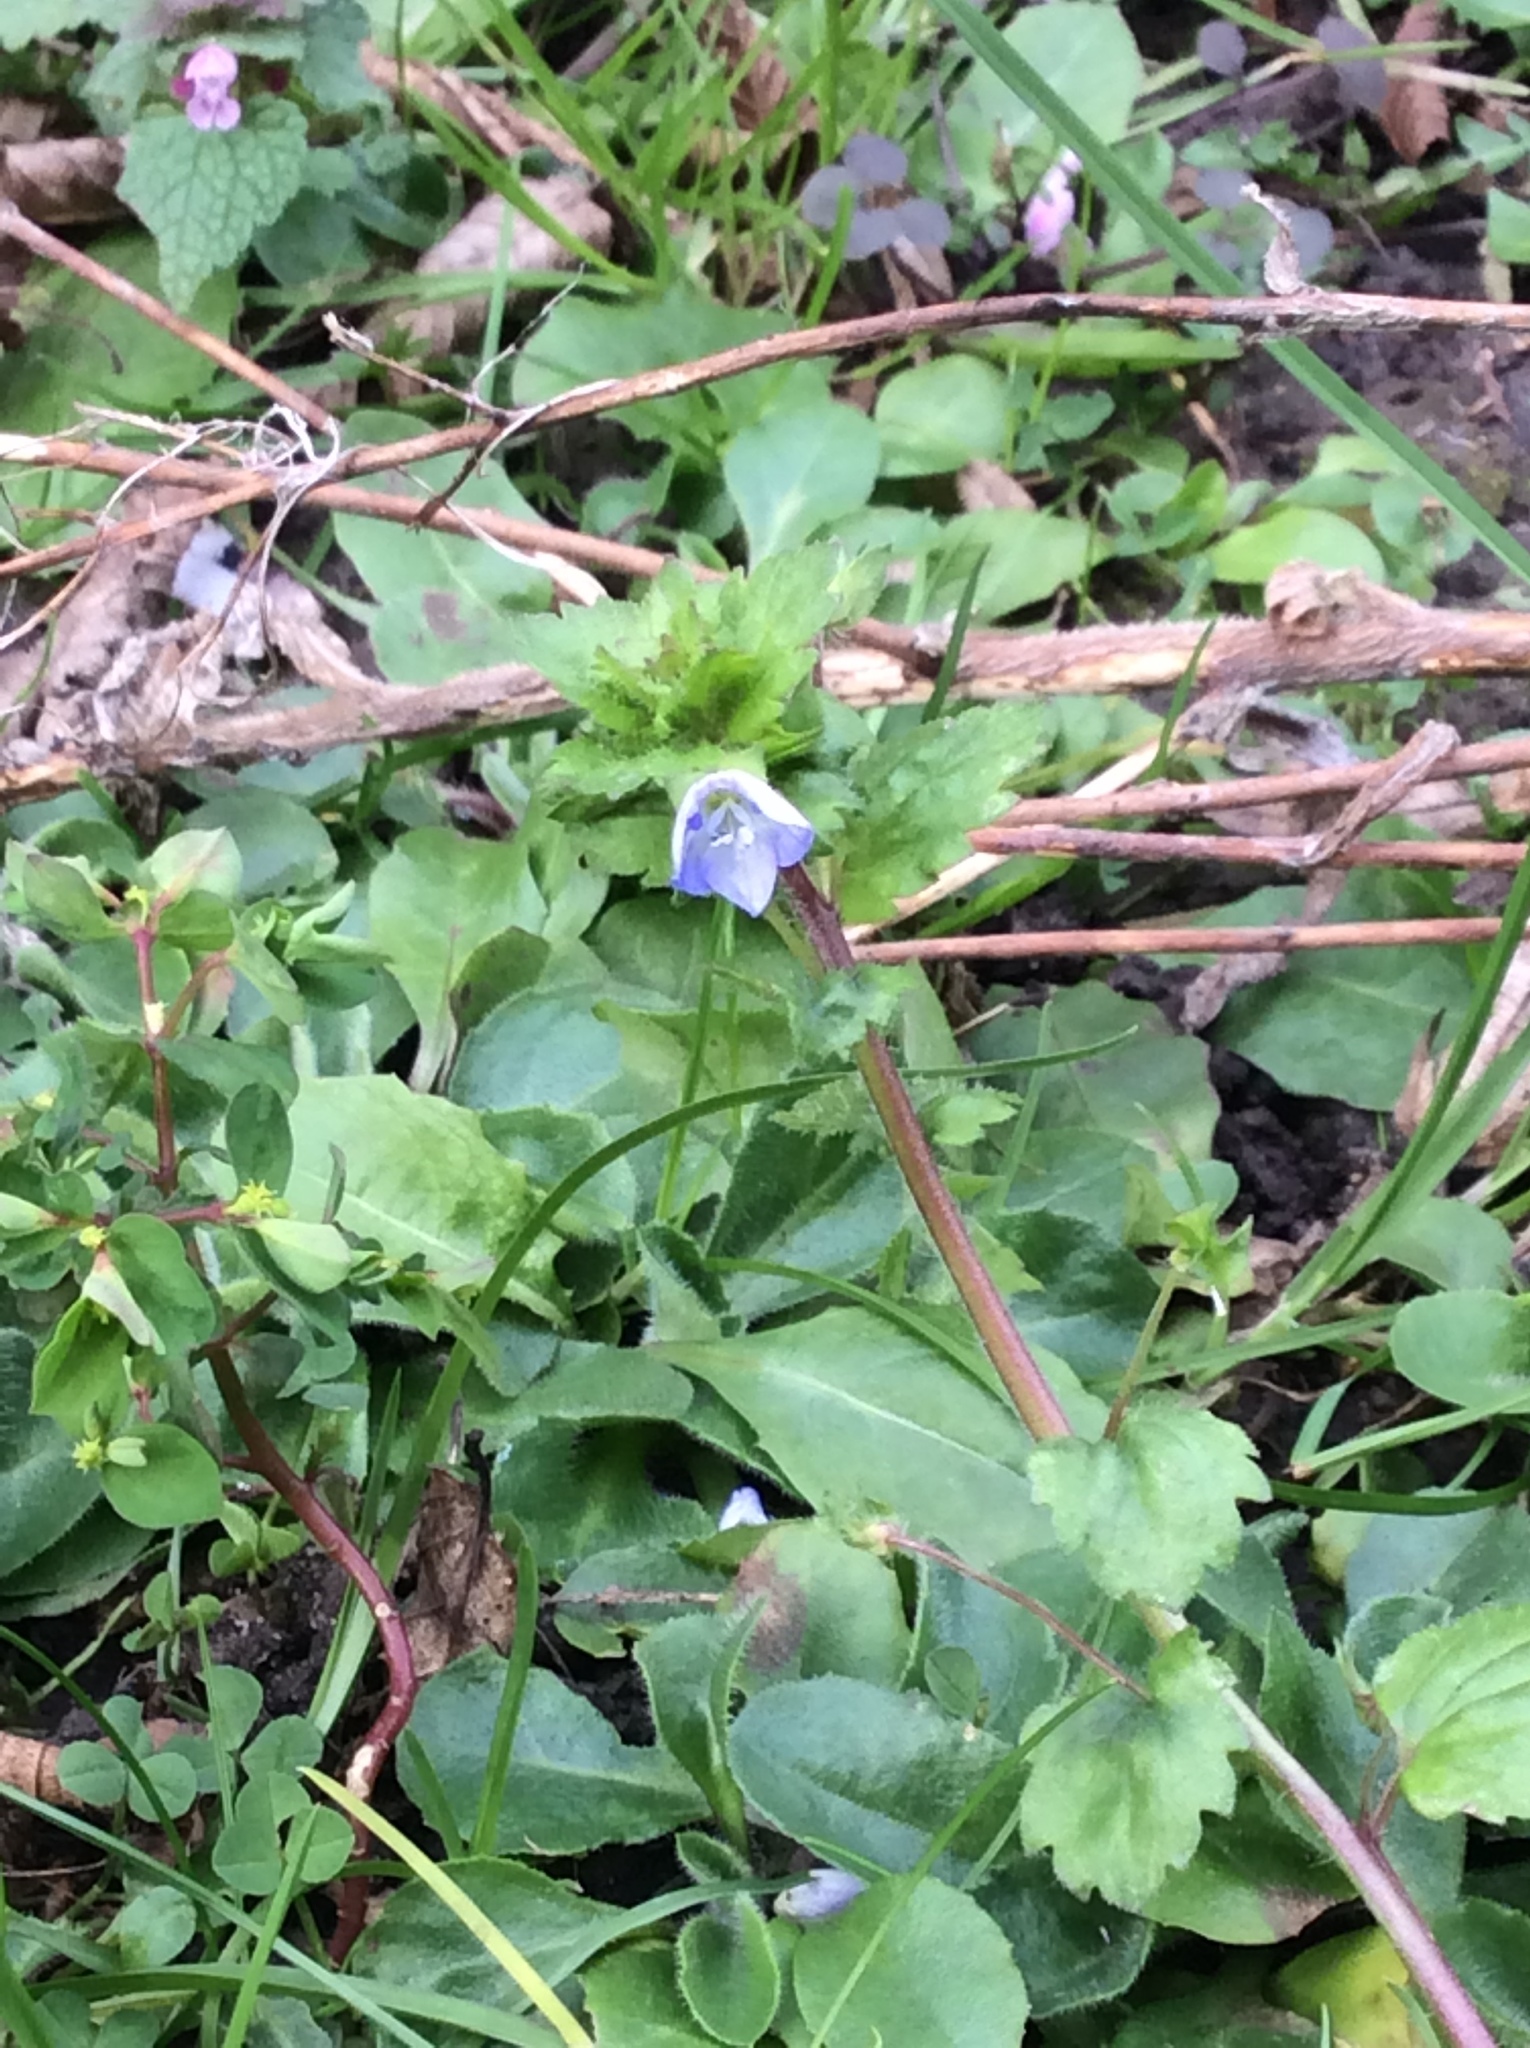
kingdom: Plantae
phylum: Tracheophyta
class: Magnoliopsida
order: Lamiales
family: Plantaginaceae
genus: Veronica
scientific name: Veronica persica
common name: Common field-speedwell
